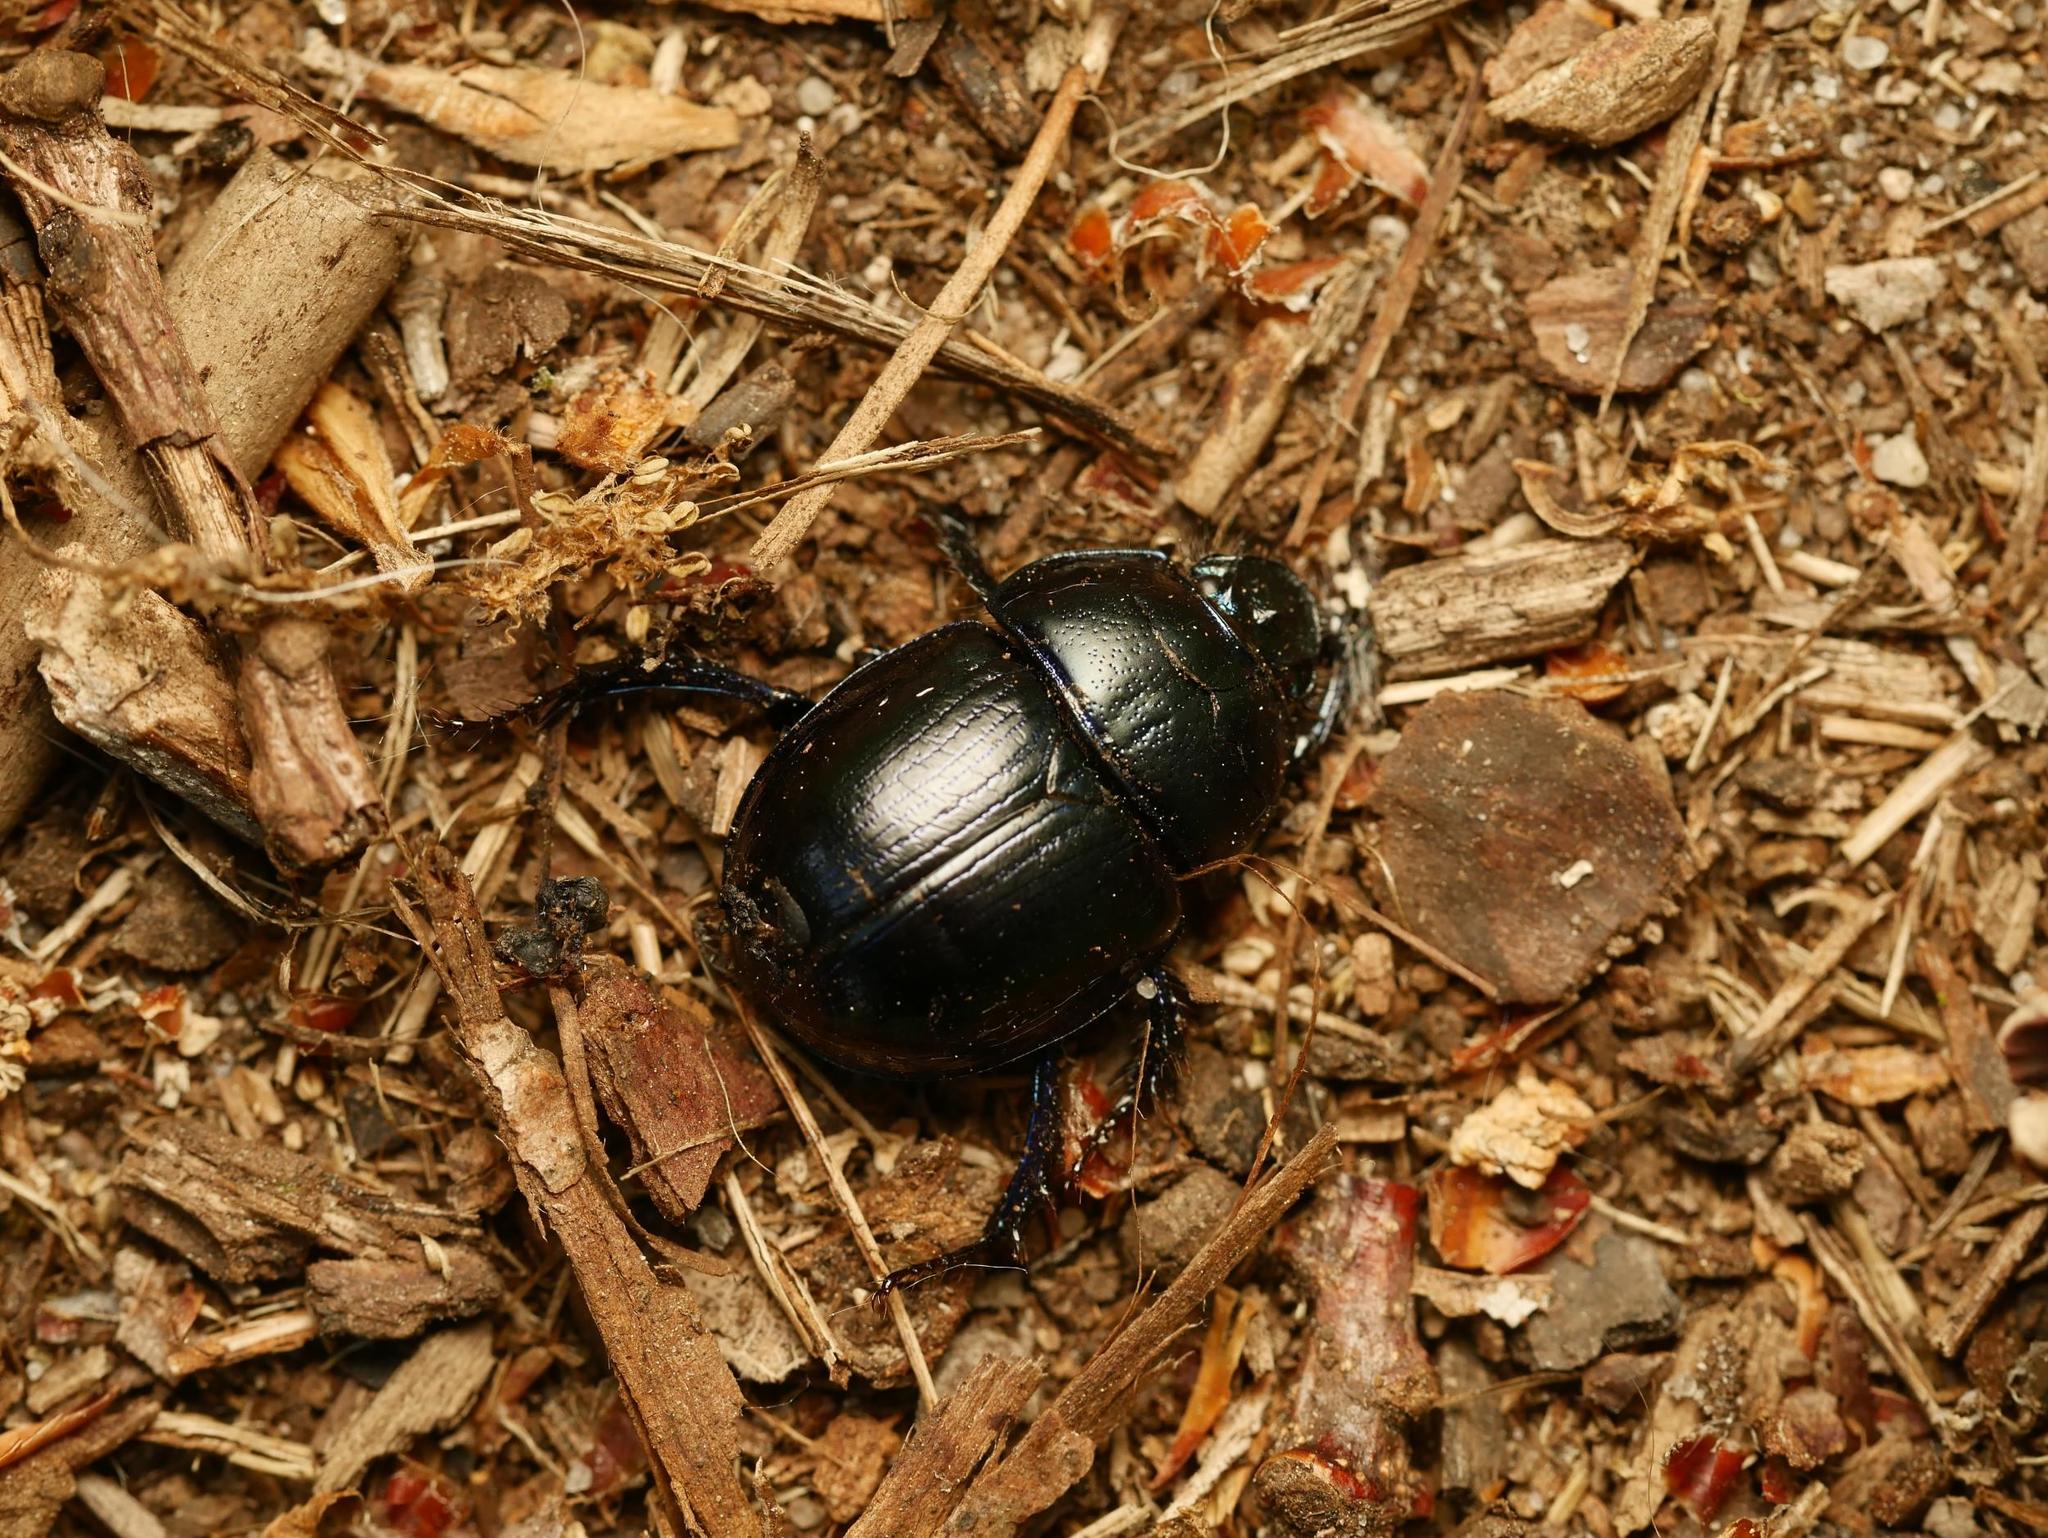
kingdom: Animalia
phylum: Arthropoda
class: Insecta
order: Coleoptera
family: Geotrupidae
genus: Anoplotrupes
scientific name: Anoplotrupes stercorosus
